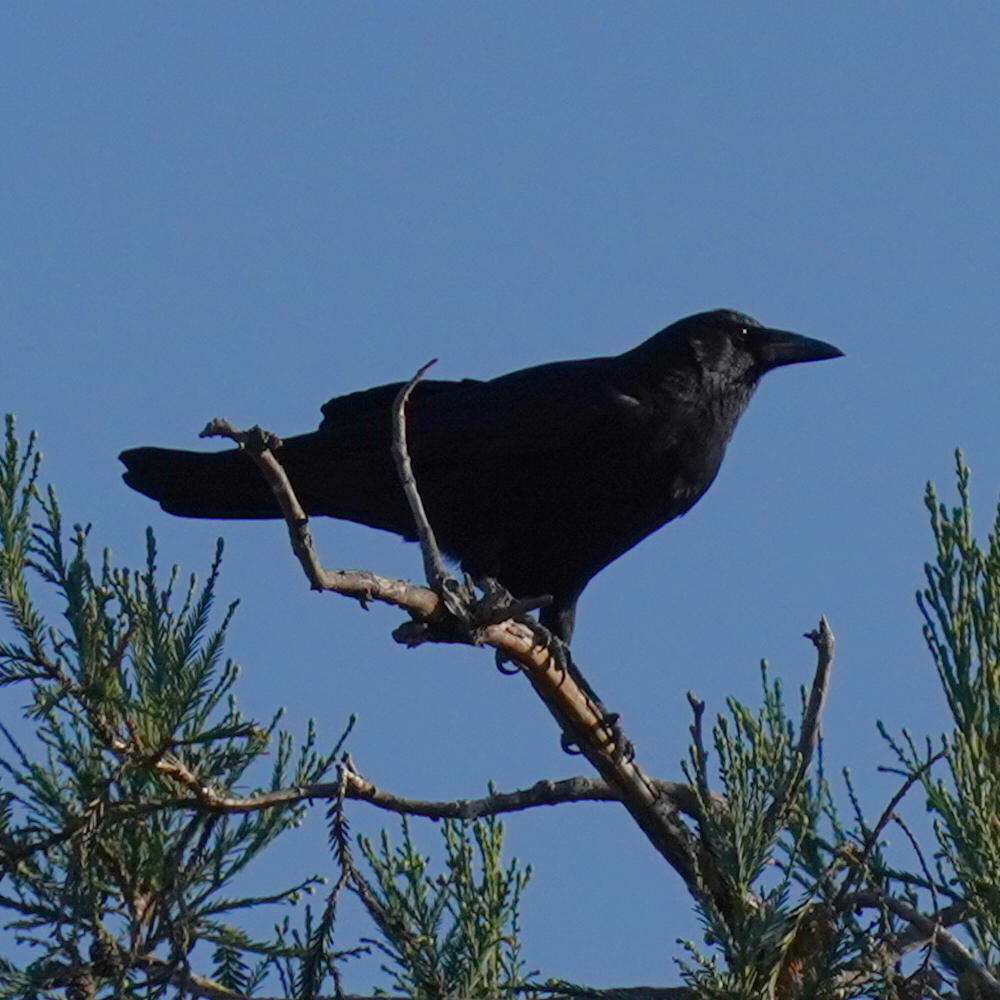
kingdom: Animalia
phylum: Chordata
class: Aves
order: Passeriformes
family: Corvidae
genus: Corvus
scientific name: Corvus corax
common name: Common raven
